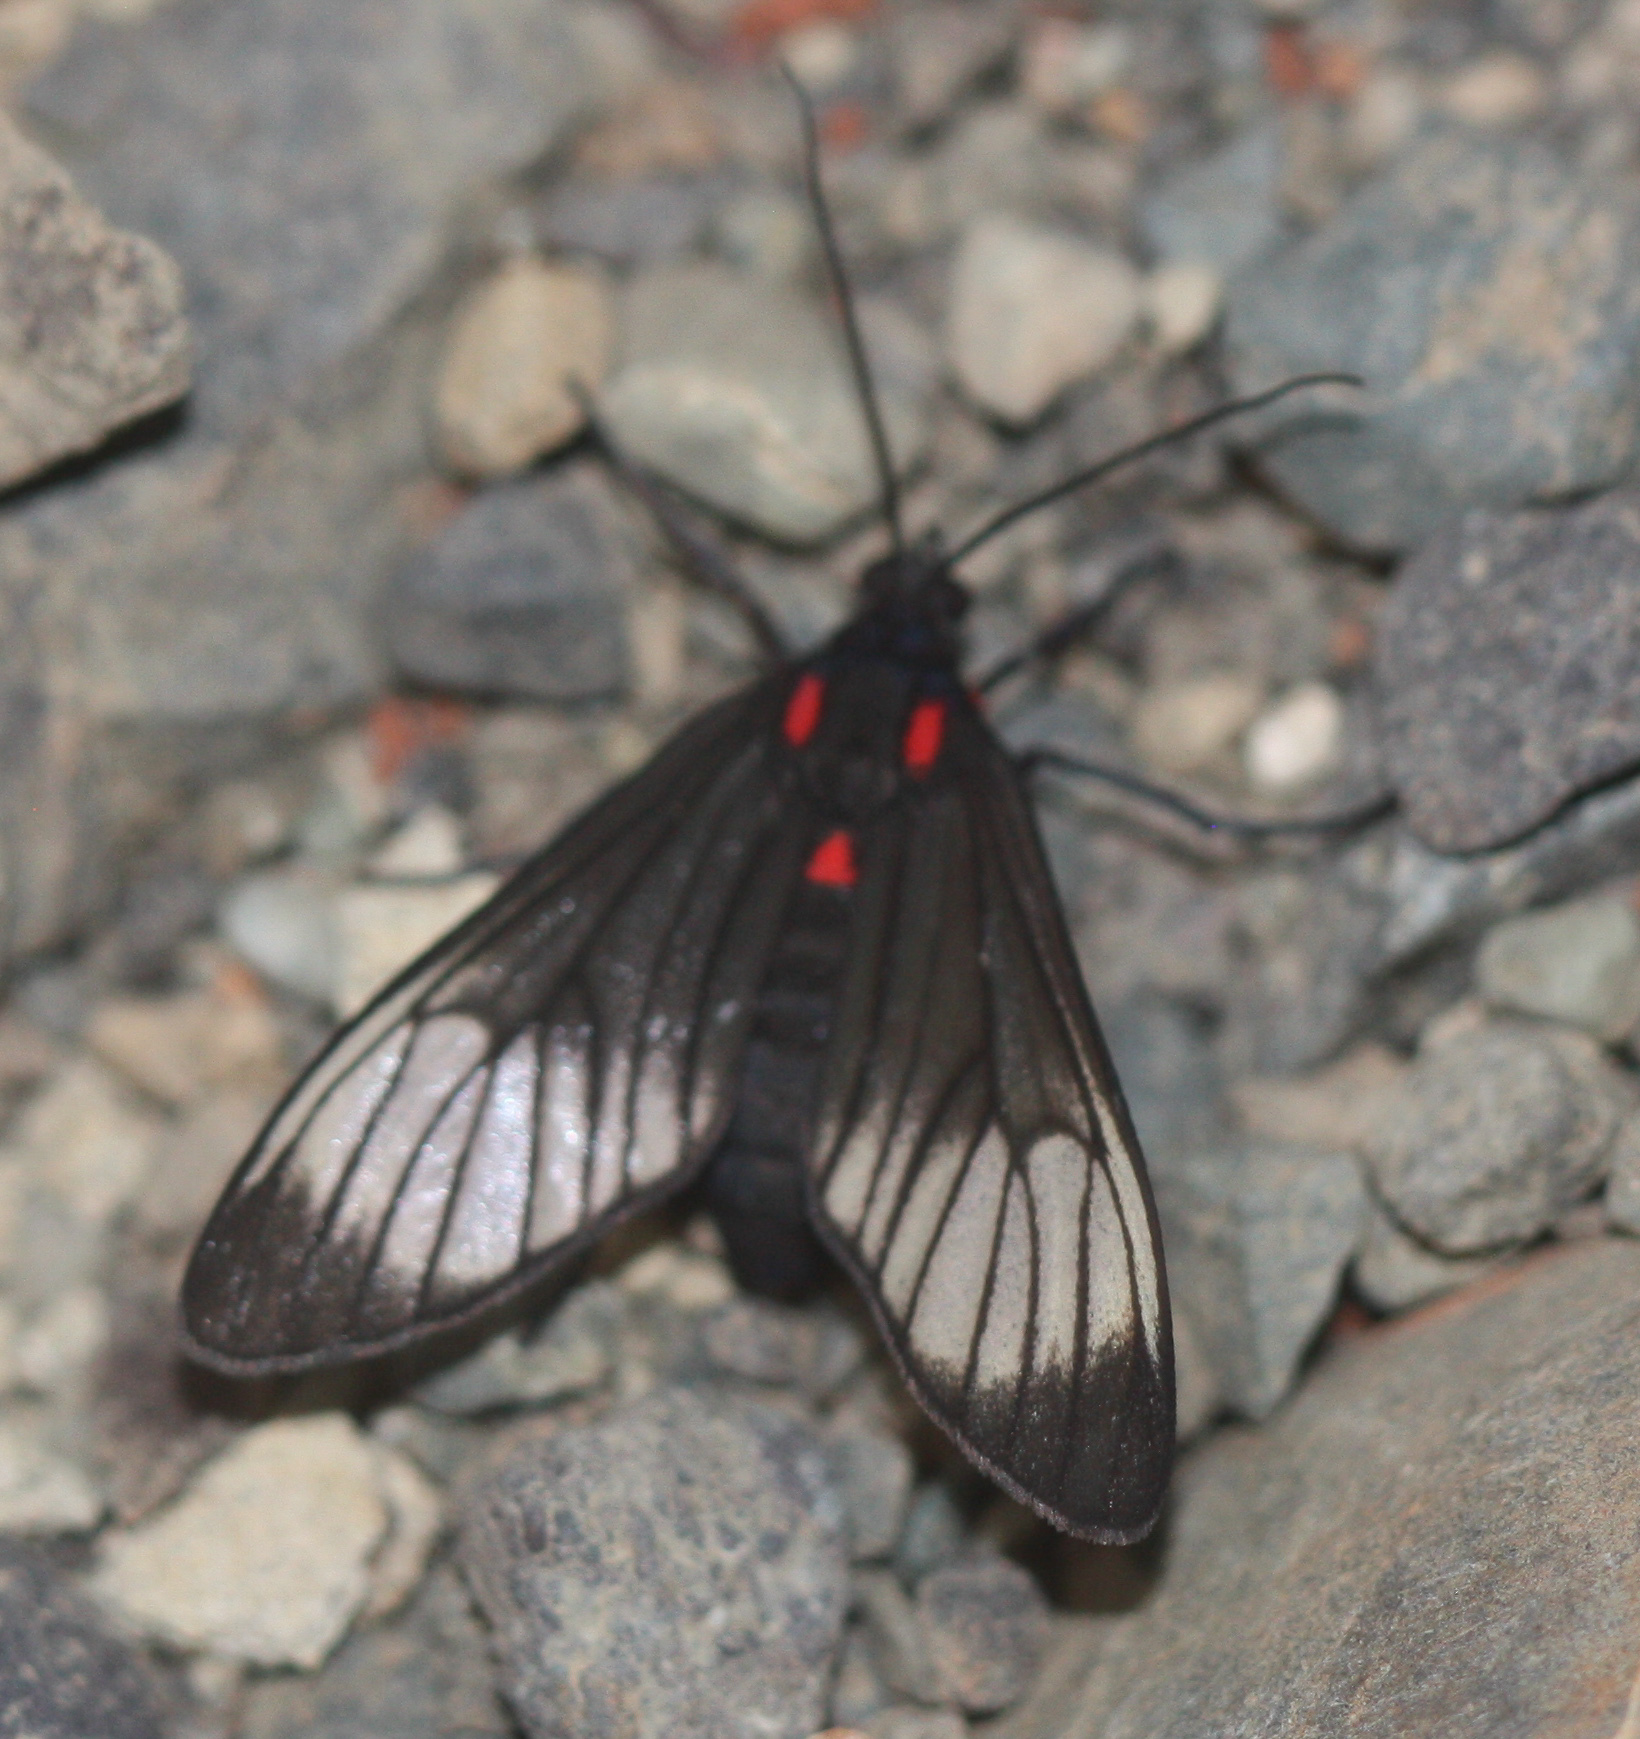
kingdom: Animalia
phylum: Arthropoda
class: Insecta
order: Lepidoptera
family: Erebidae
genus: Hyperphara
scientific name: Hyperphara clusia
